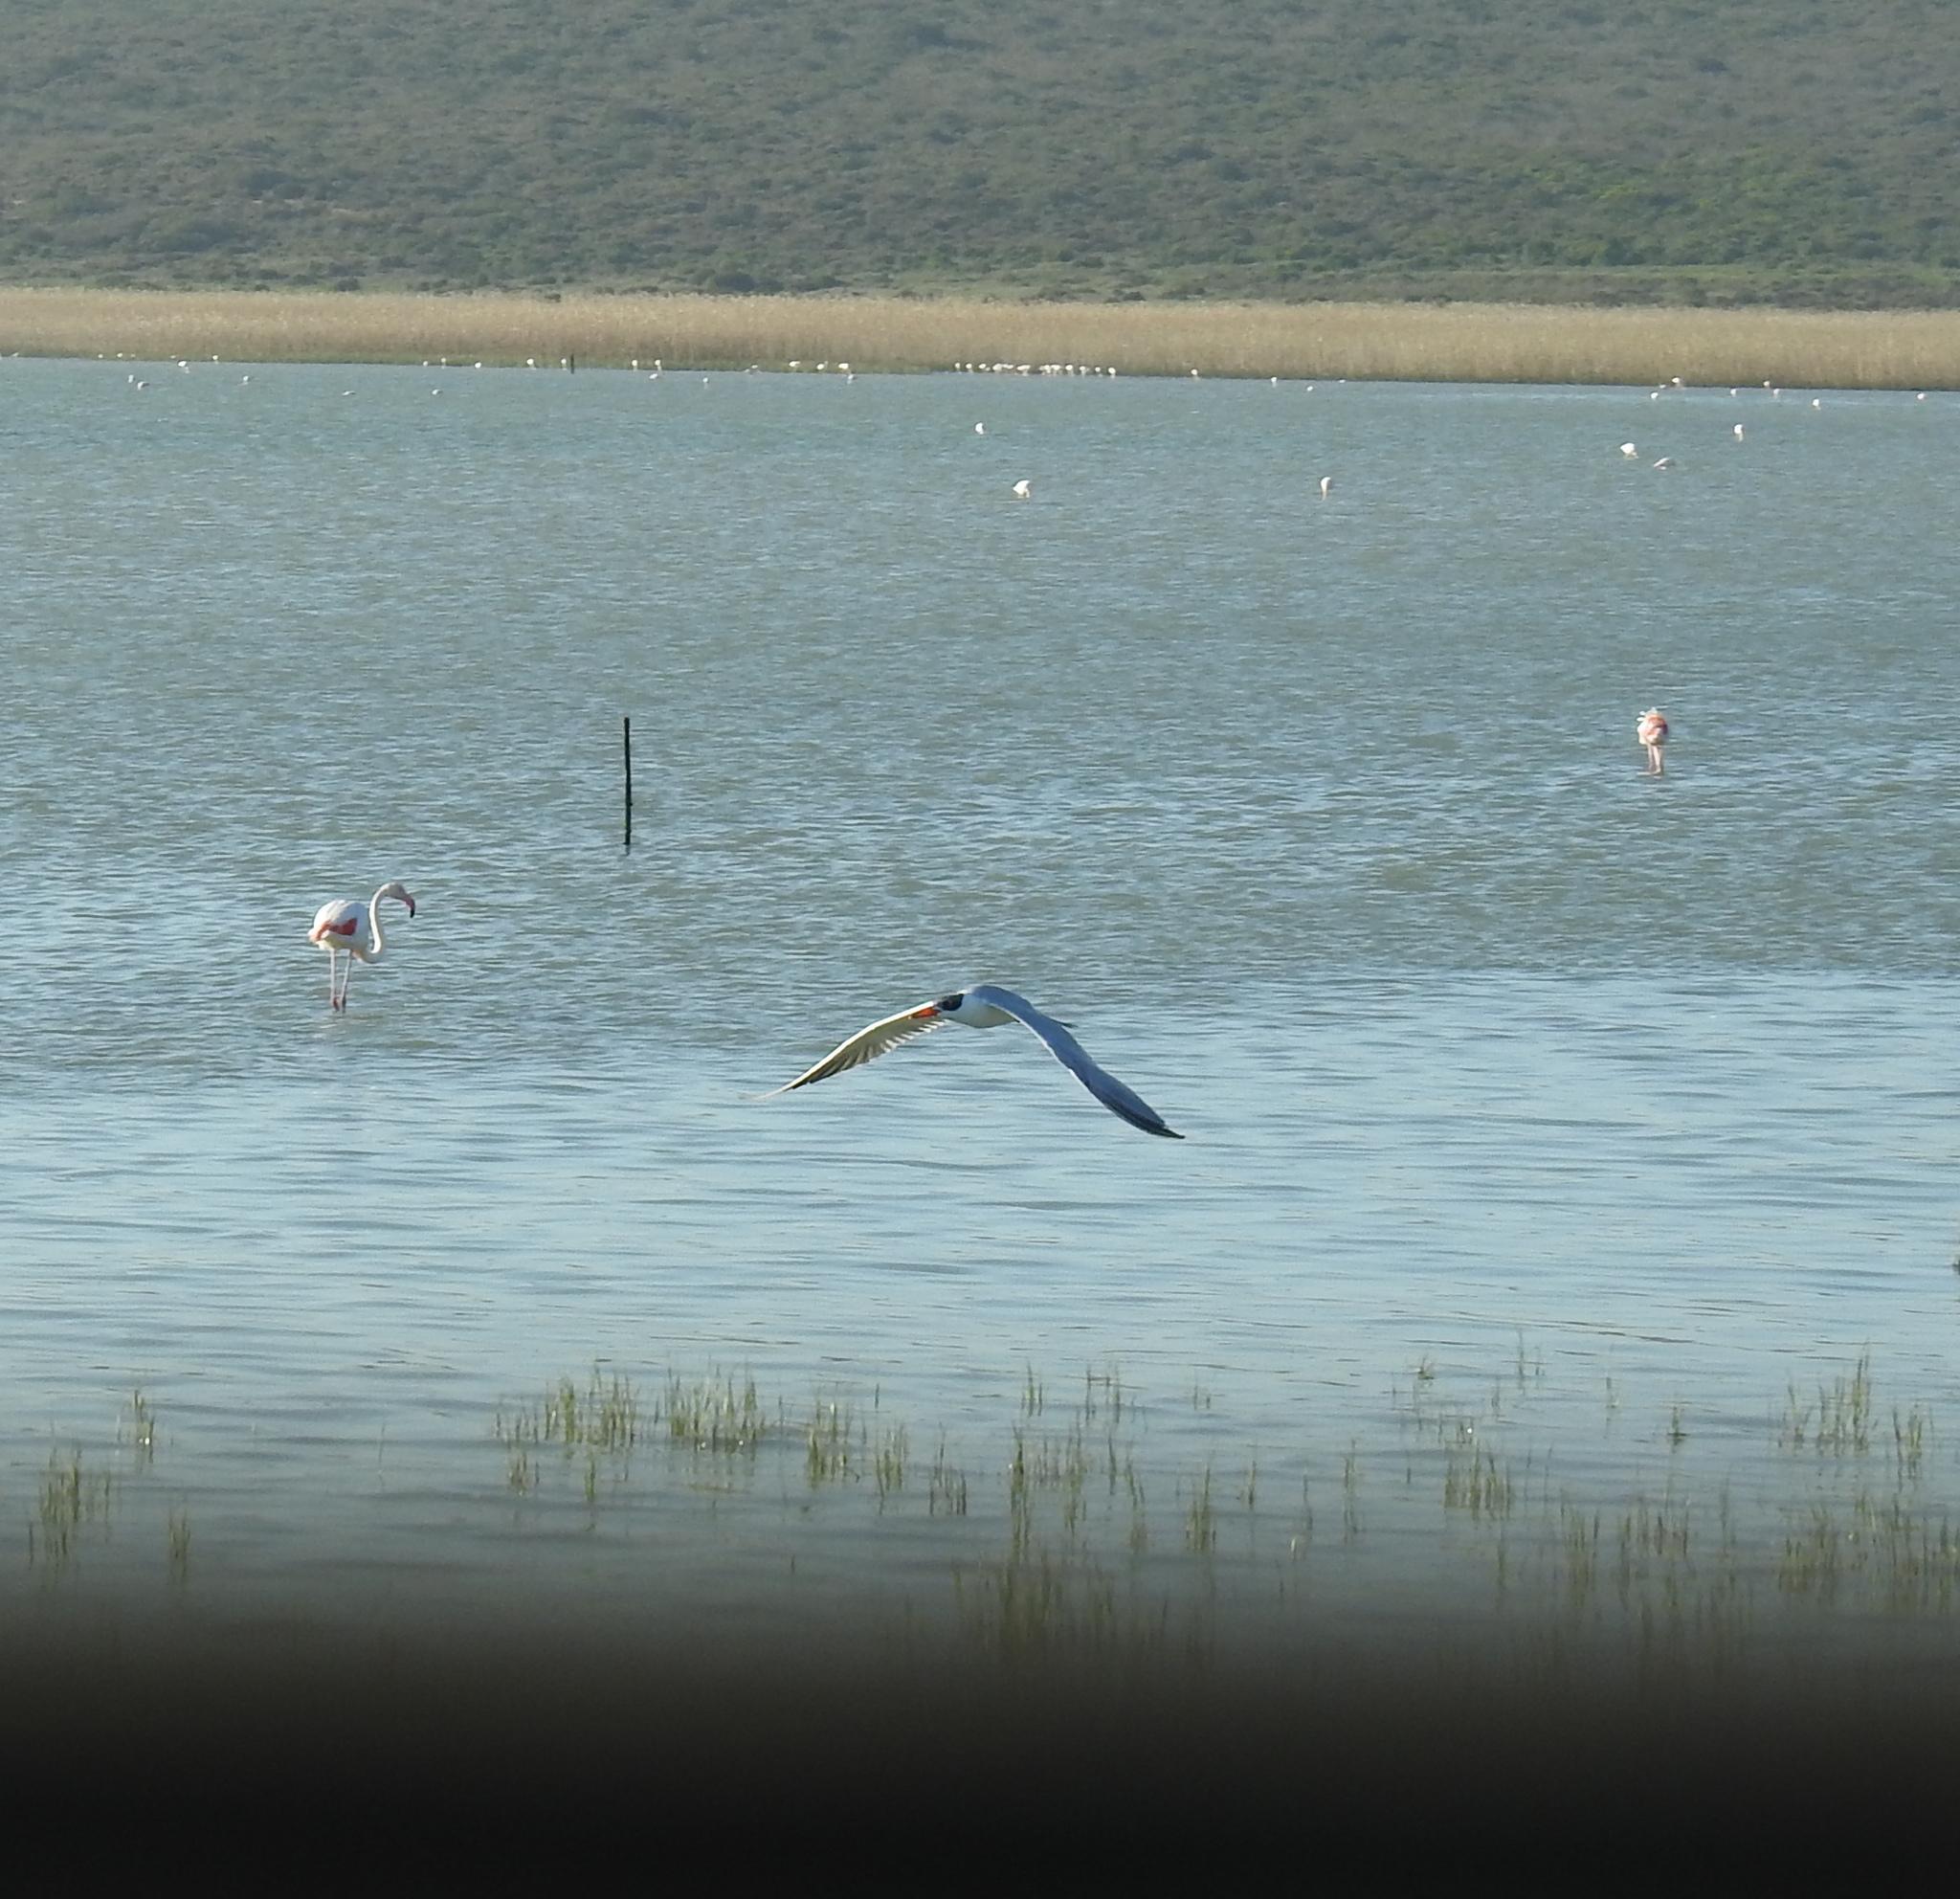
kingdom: Animalia
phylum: Chordata
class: Aves
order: Charadriiformes
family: Laridae
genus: Hydroprogne
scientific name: Hydroprogne caspia
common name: Caspian tern
